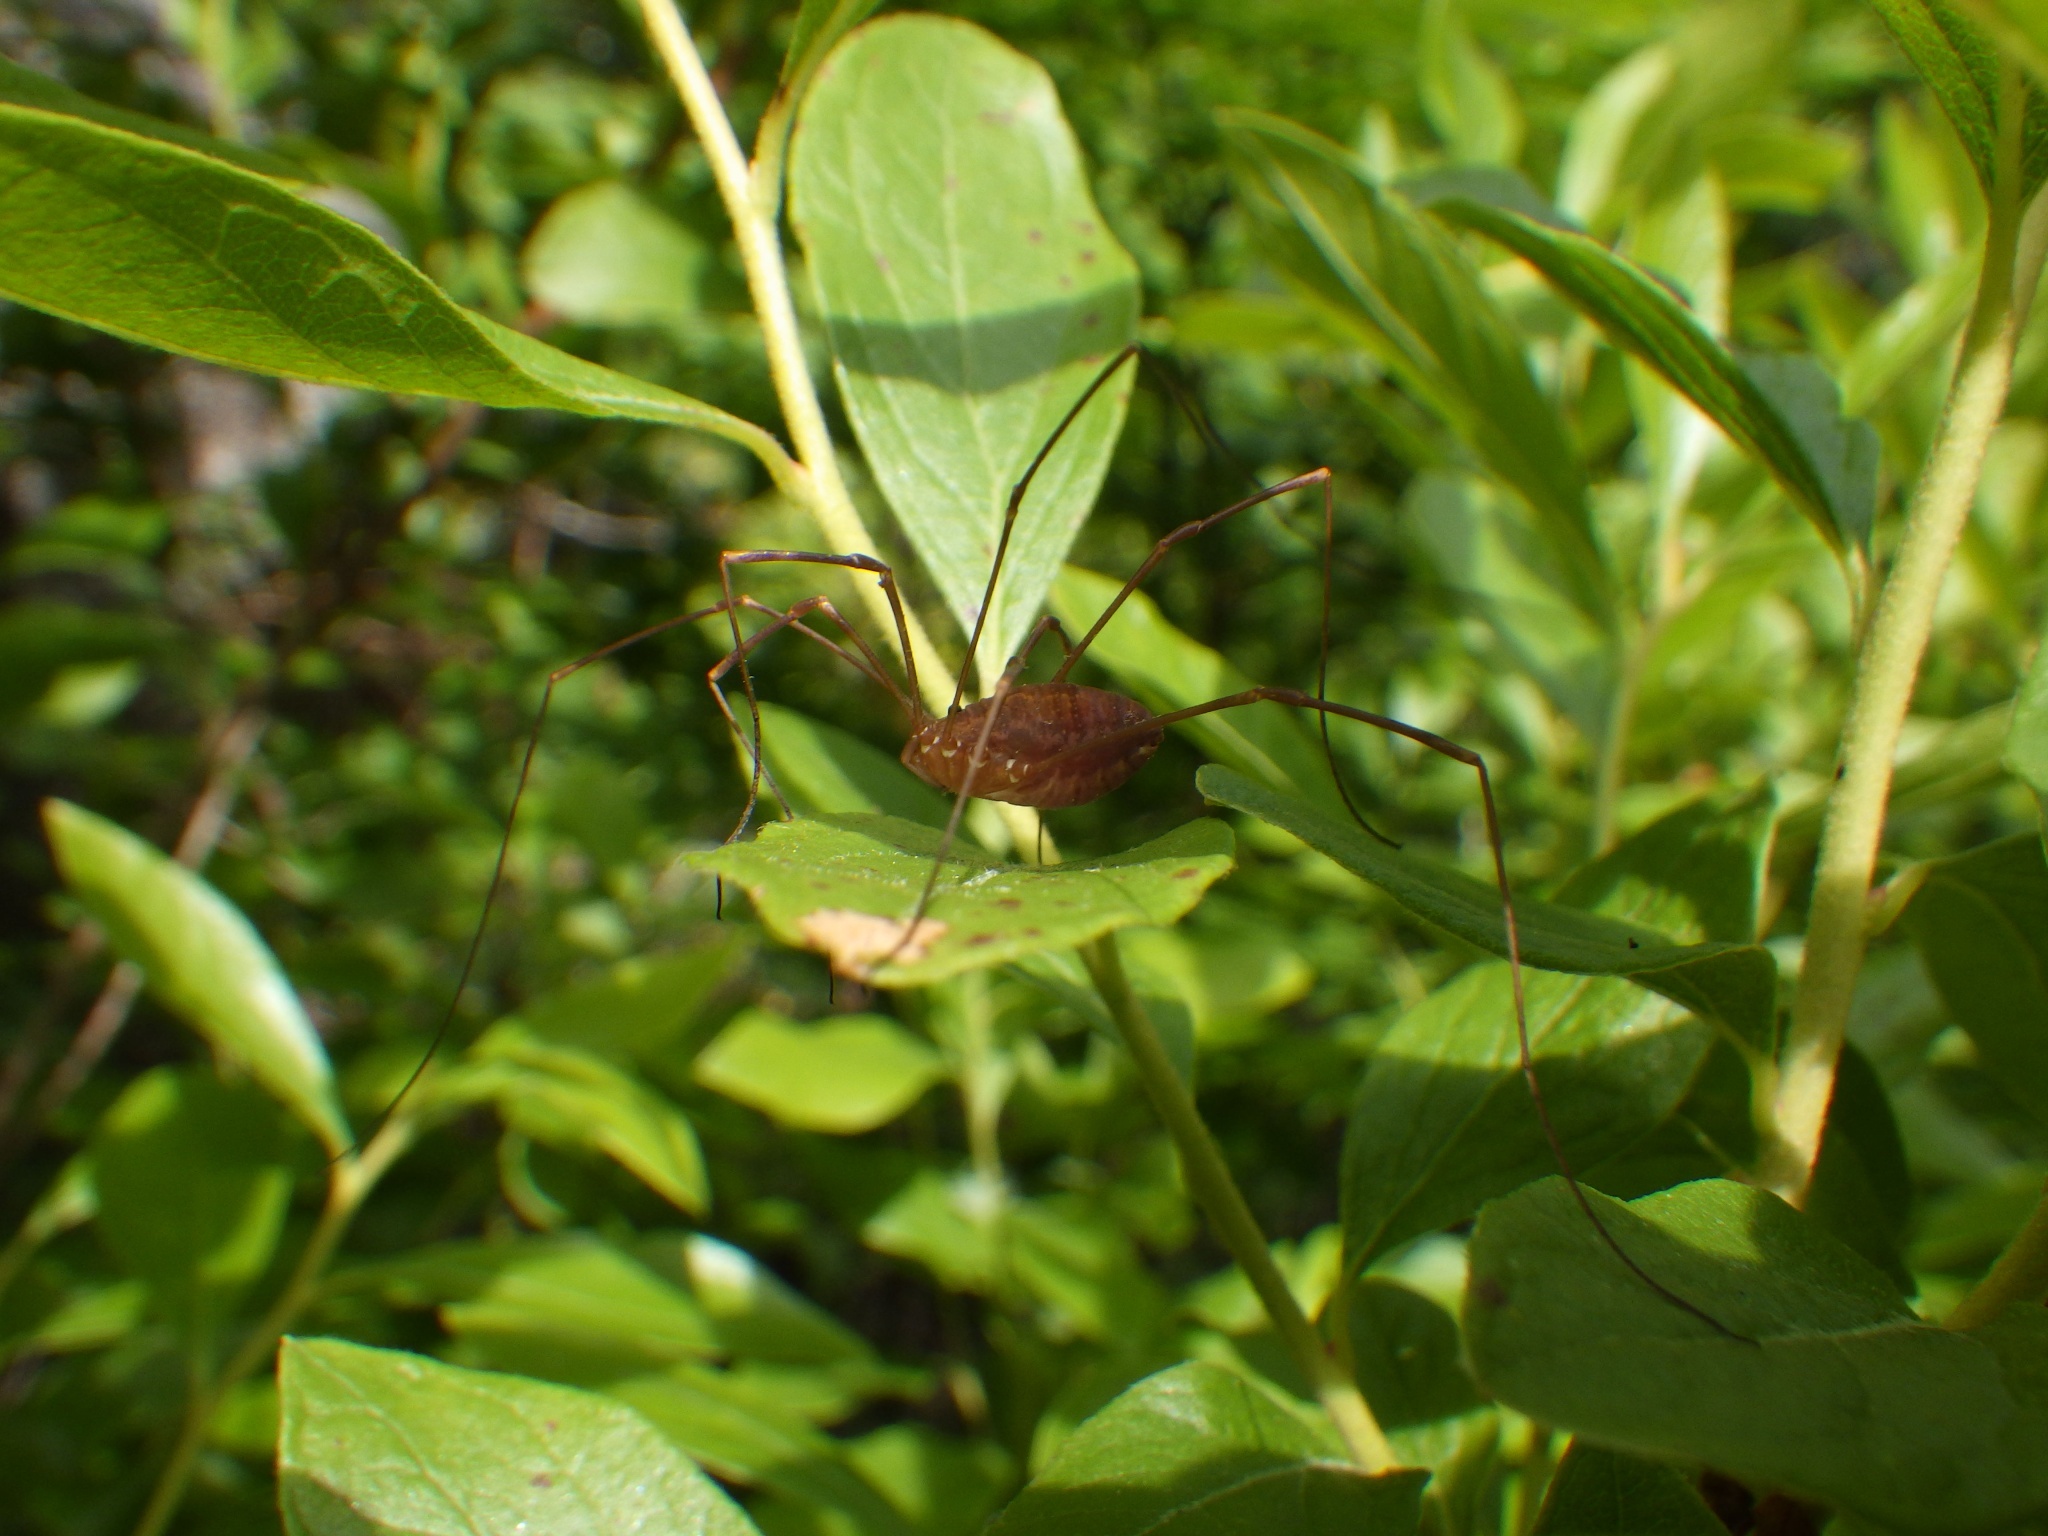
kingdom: Animalia
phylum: Arthropoda
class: Arachnida
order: Opiliones
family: Sclerosomatidae
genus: Leiobunum
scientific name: Leiobunum ventricosum
